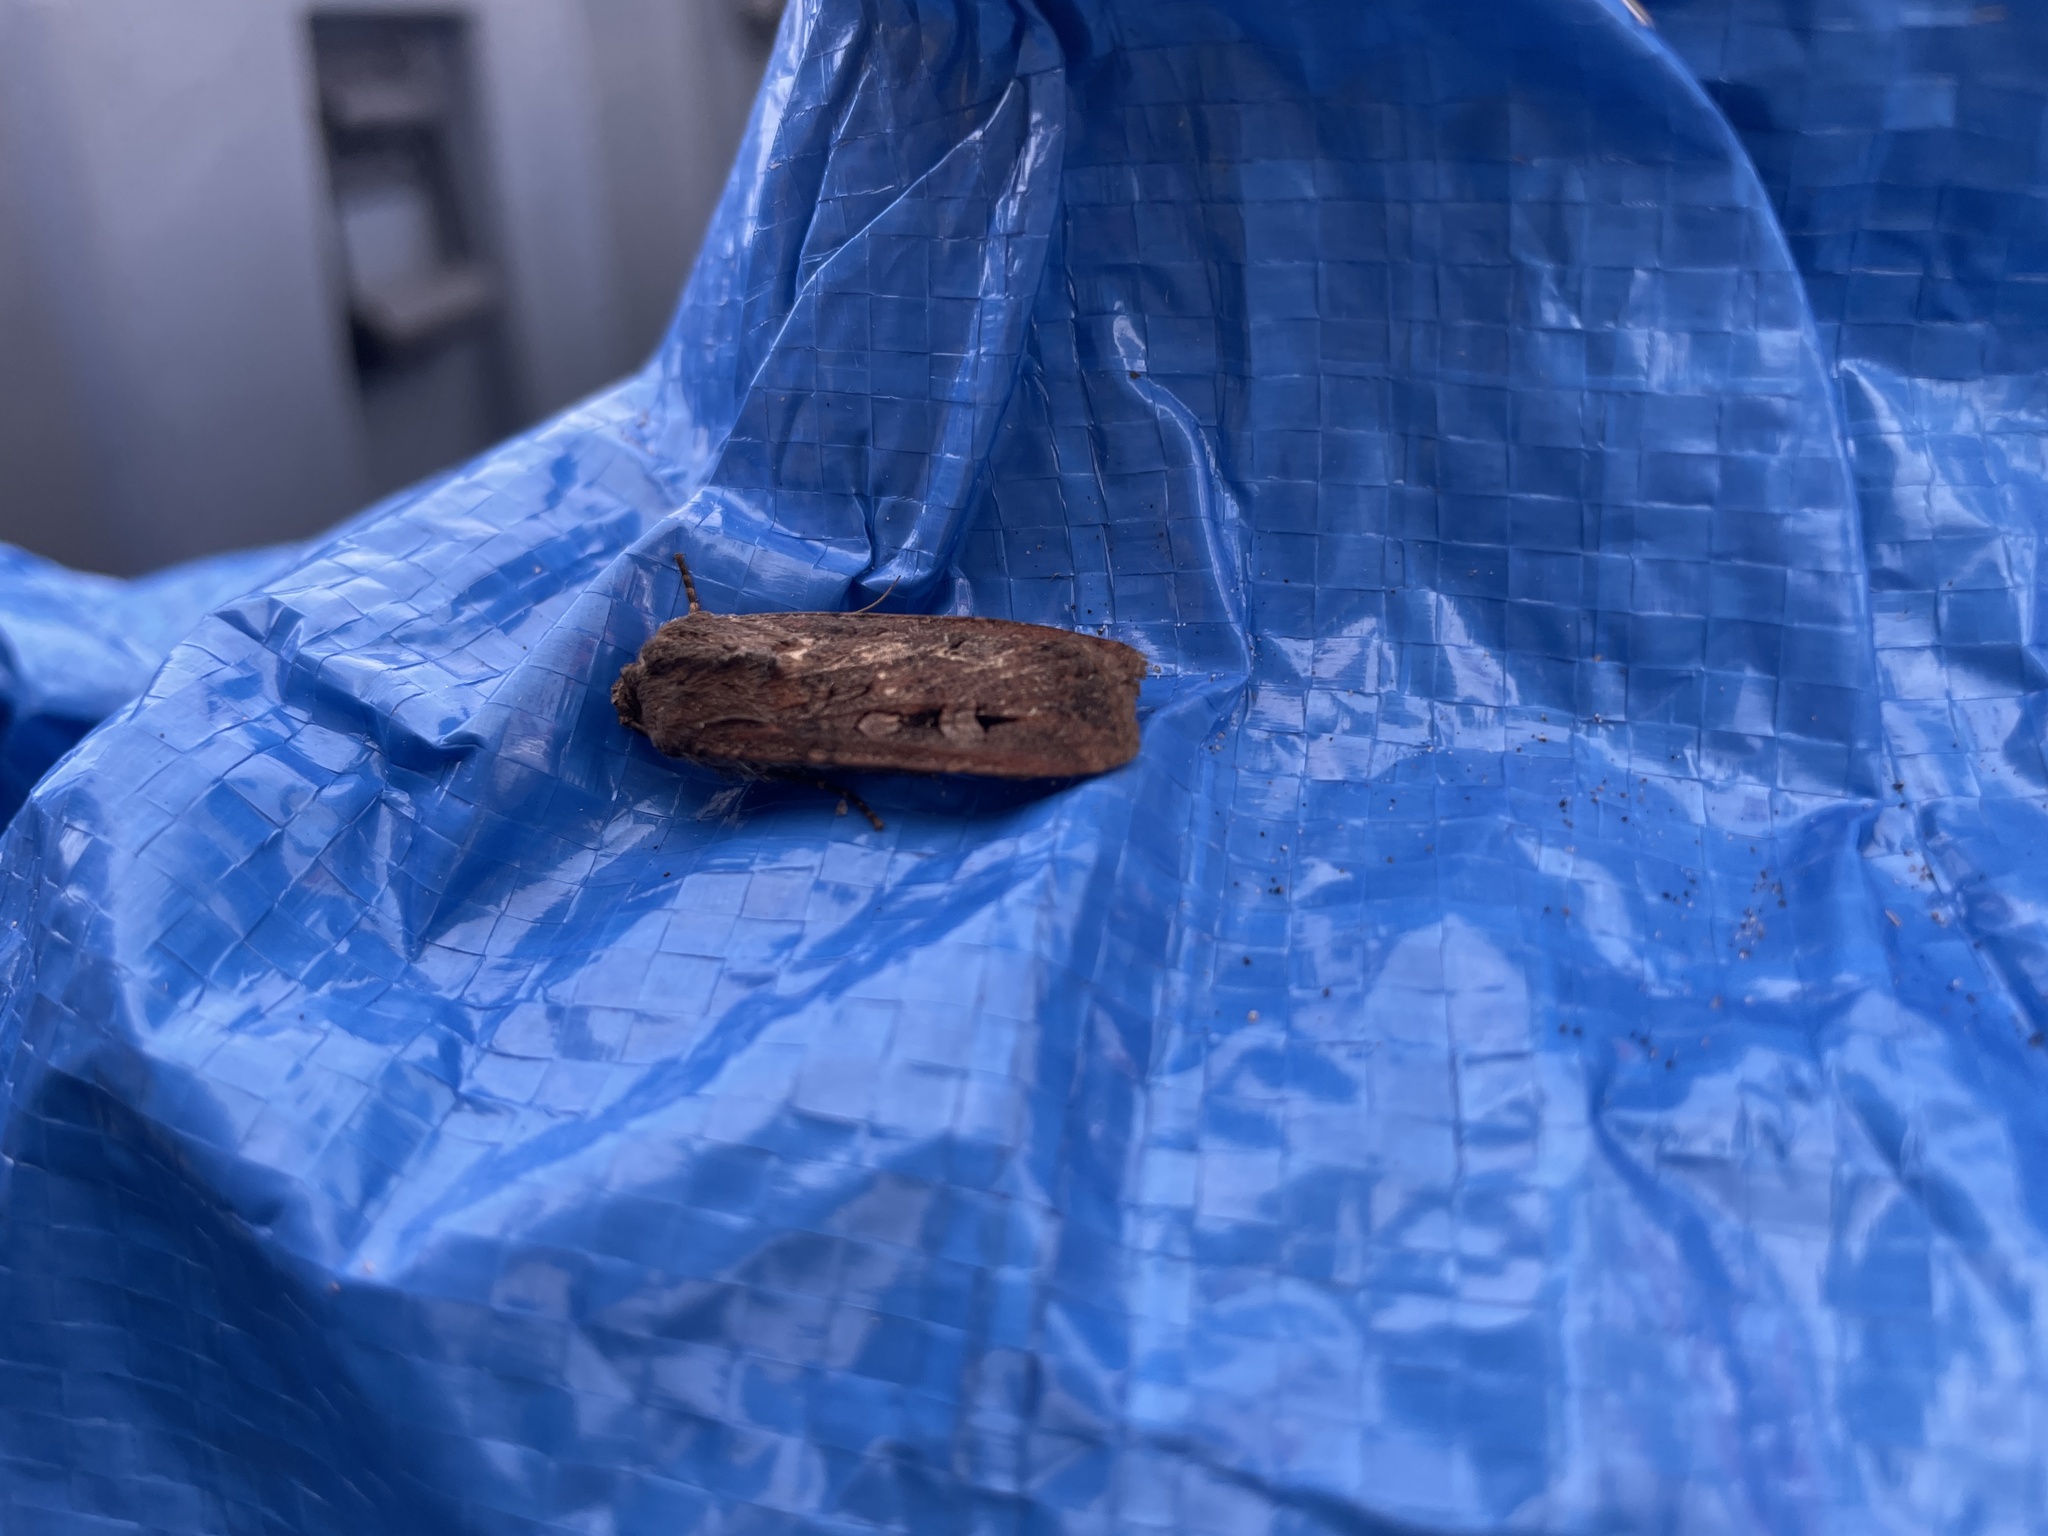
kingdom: Animalia
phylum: Arthropoda
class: Insecta
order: Lepidoptera
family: Noctuidae
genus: Agrotis
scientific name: Agrotis infusa
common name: Bogong moth
